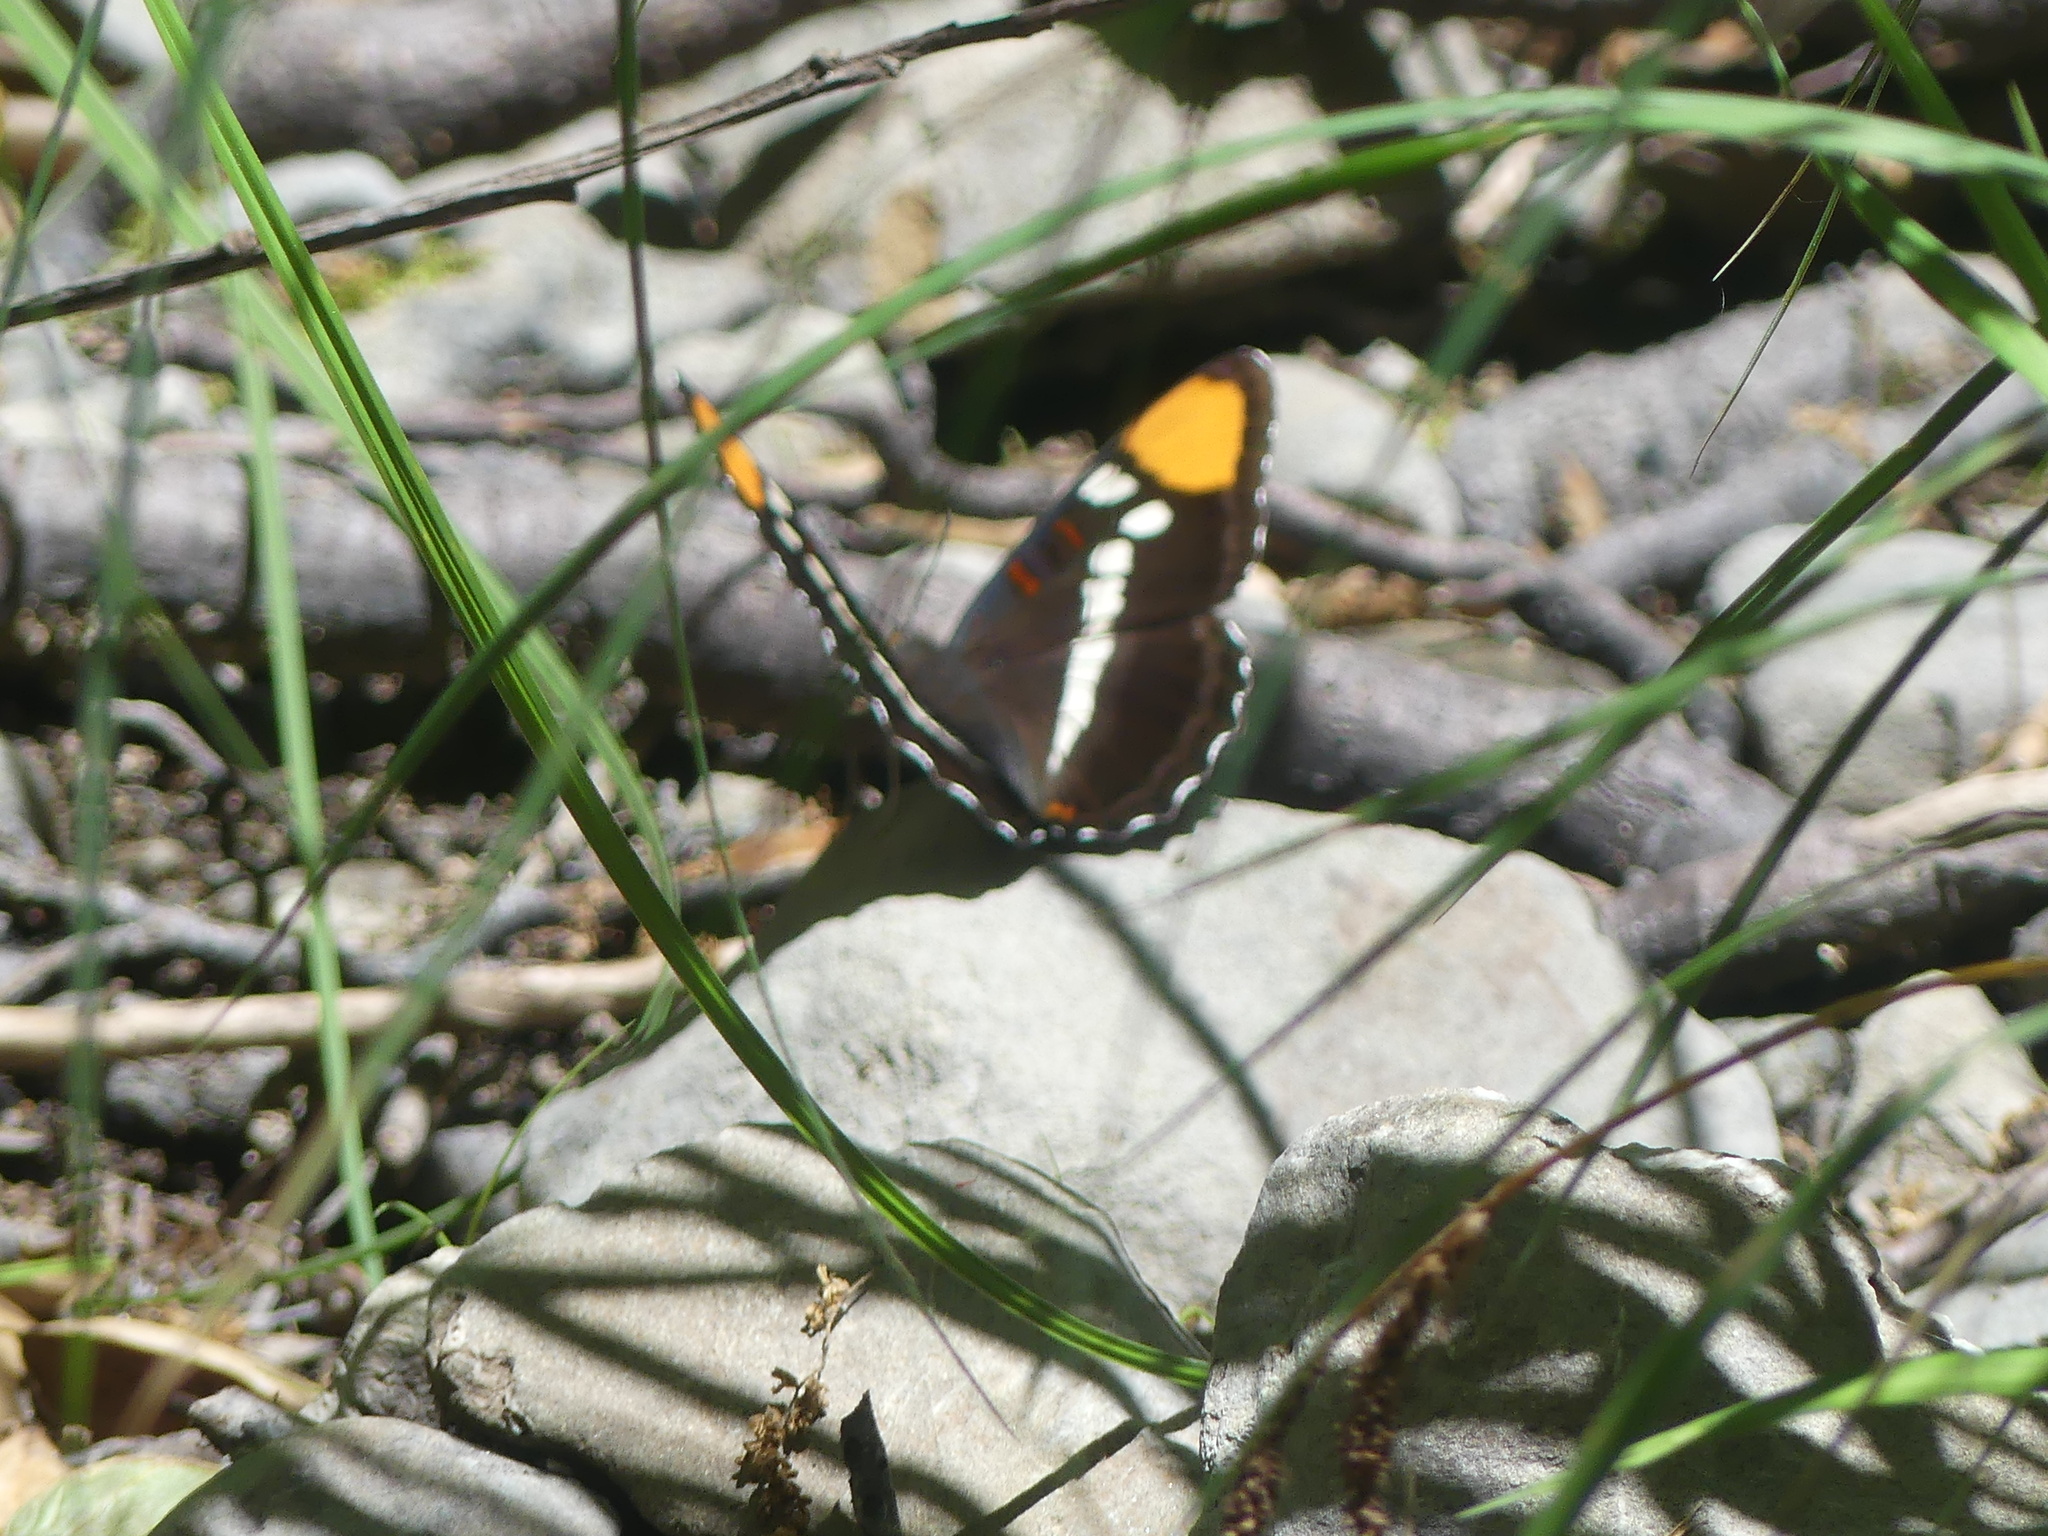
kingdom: Animalia
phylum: Arthropoda
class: Insecta
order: Lepidoptera
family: Nymphalidae
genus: Limenitis
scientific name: Limenitis bredowii
